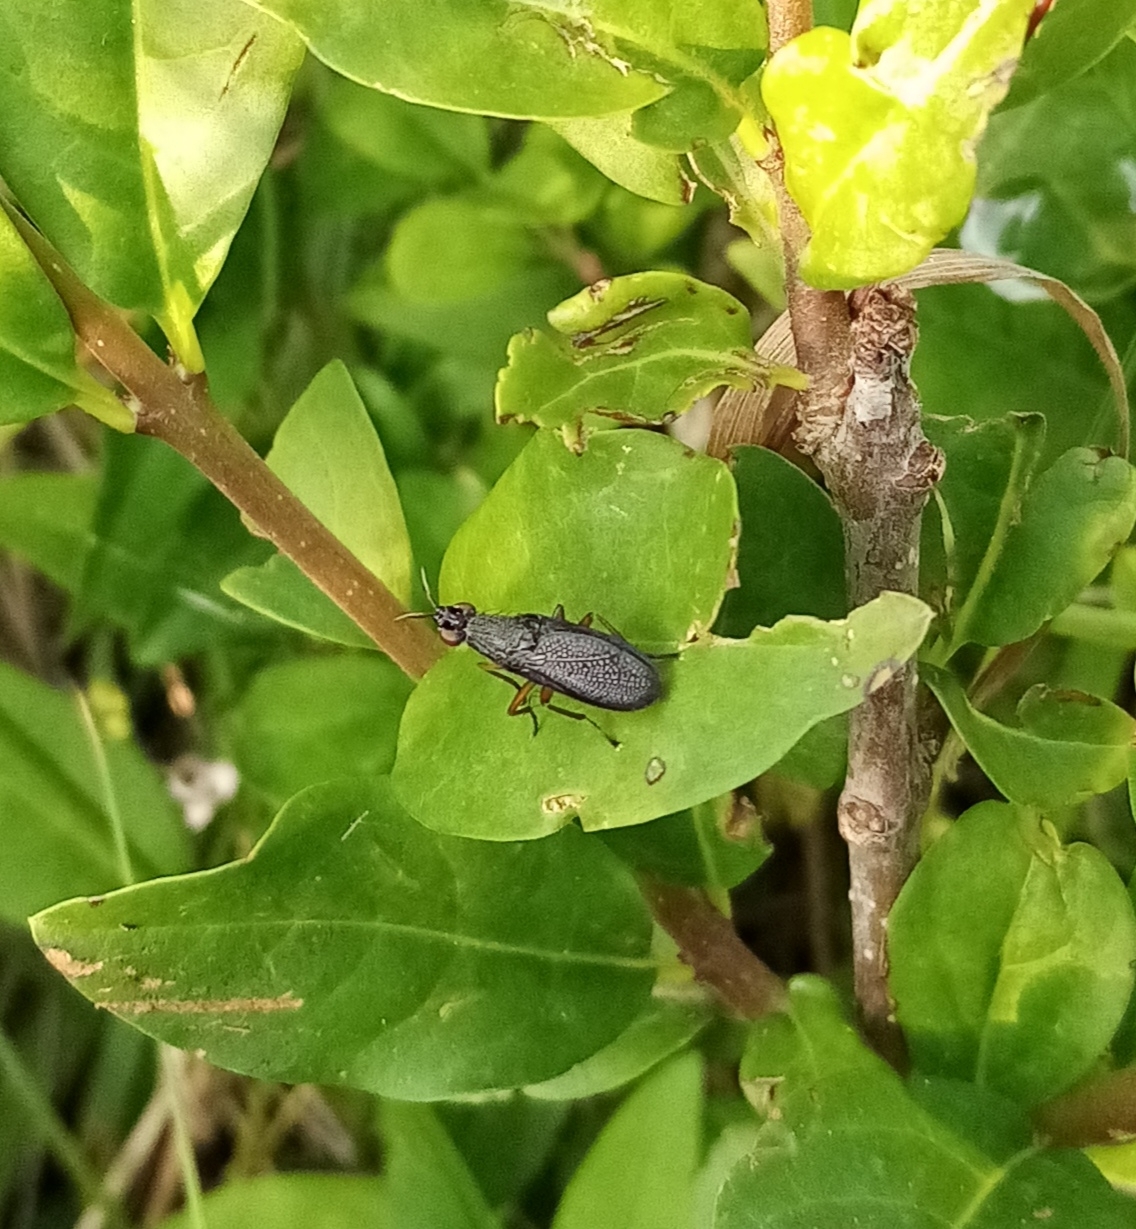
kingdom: Animalia
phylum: Arthropoda
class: Insecta
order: Diptera
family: Sciomyzidae
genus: Coremacera
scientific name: Coremacera marginata
